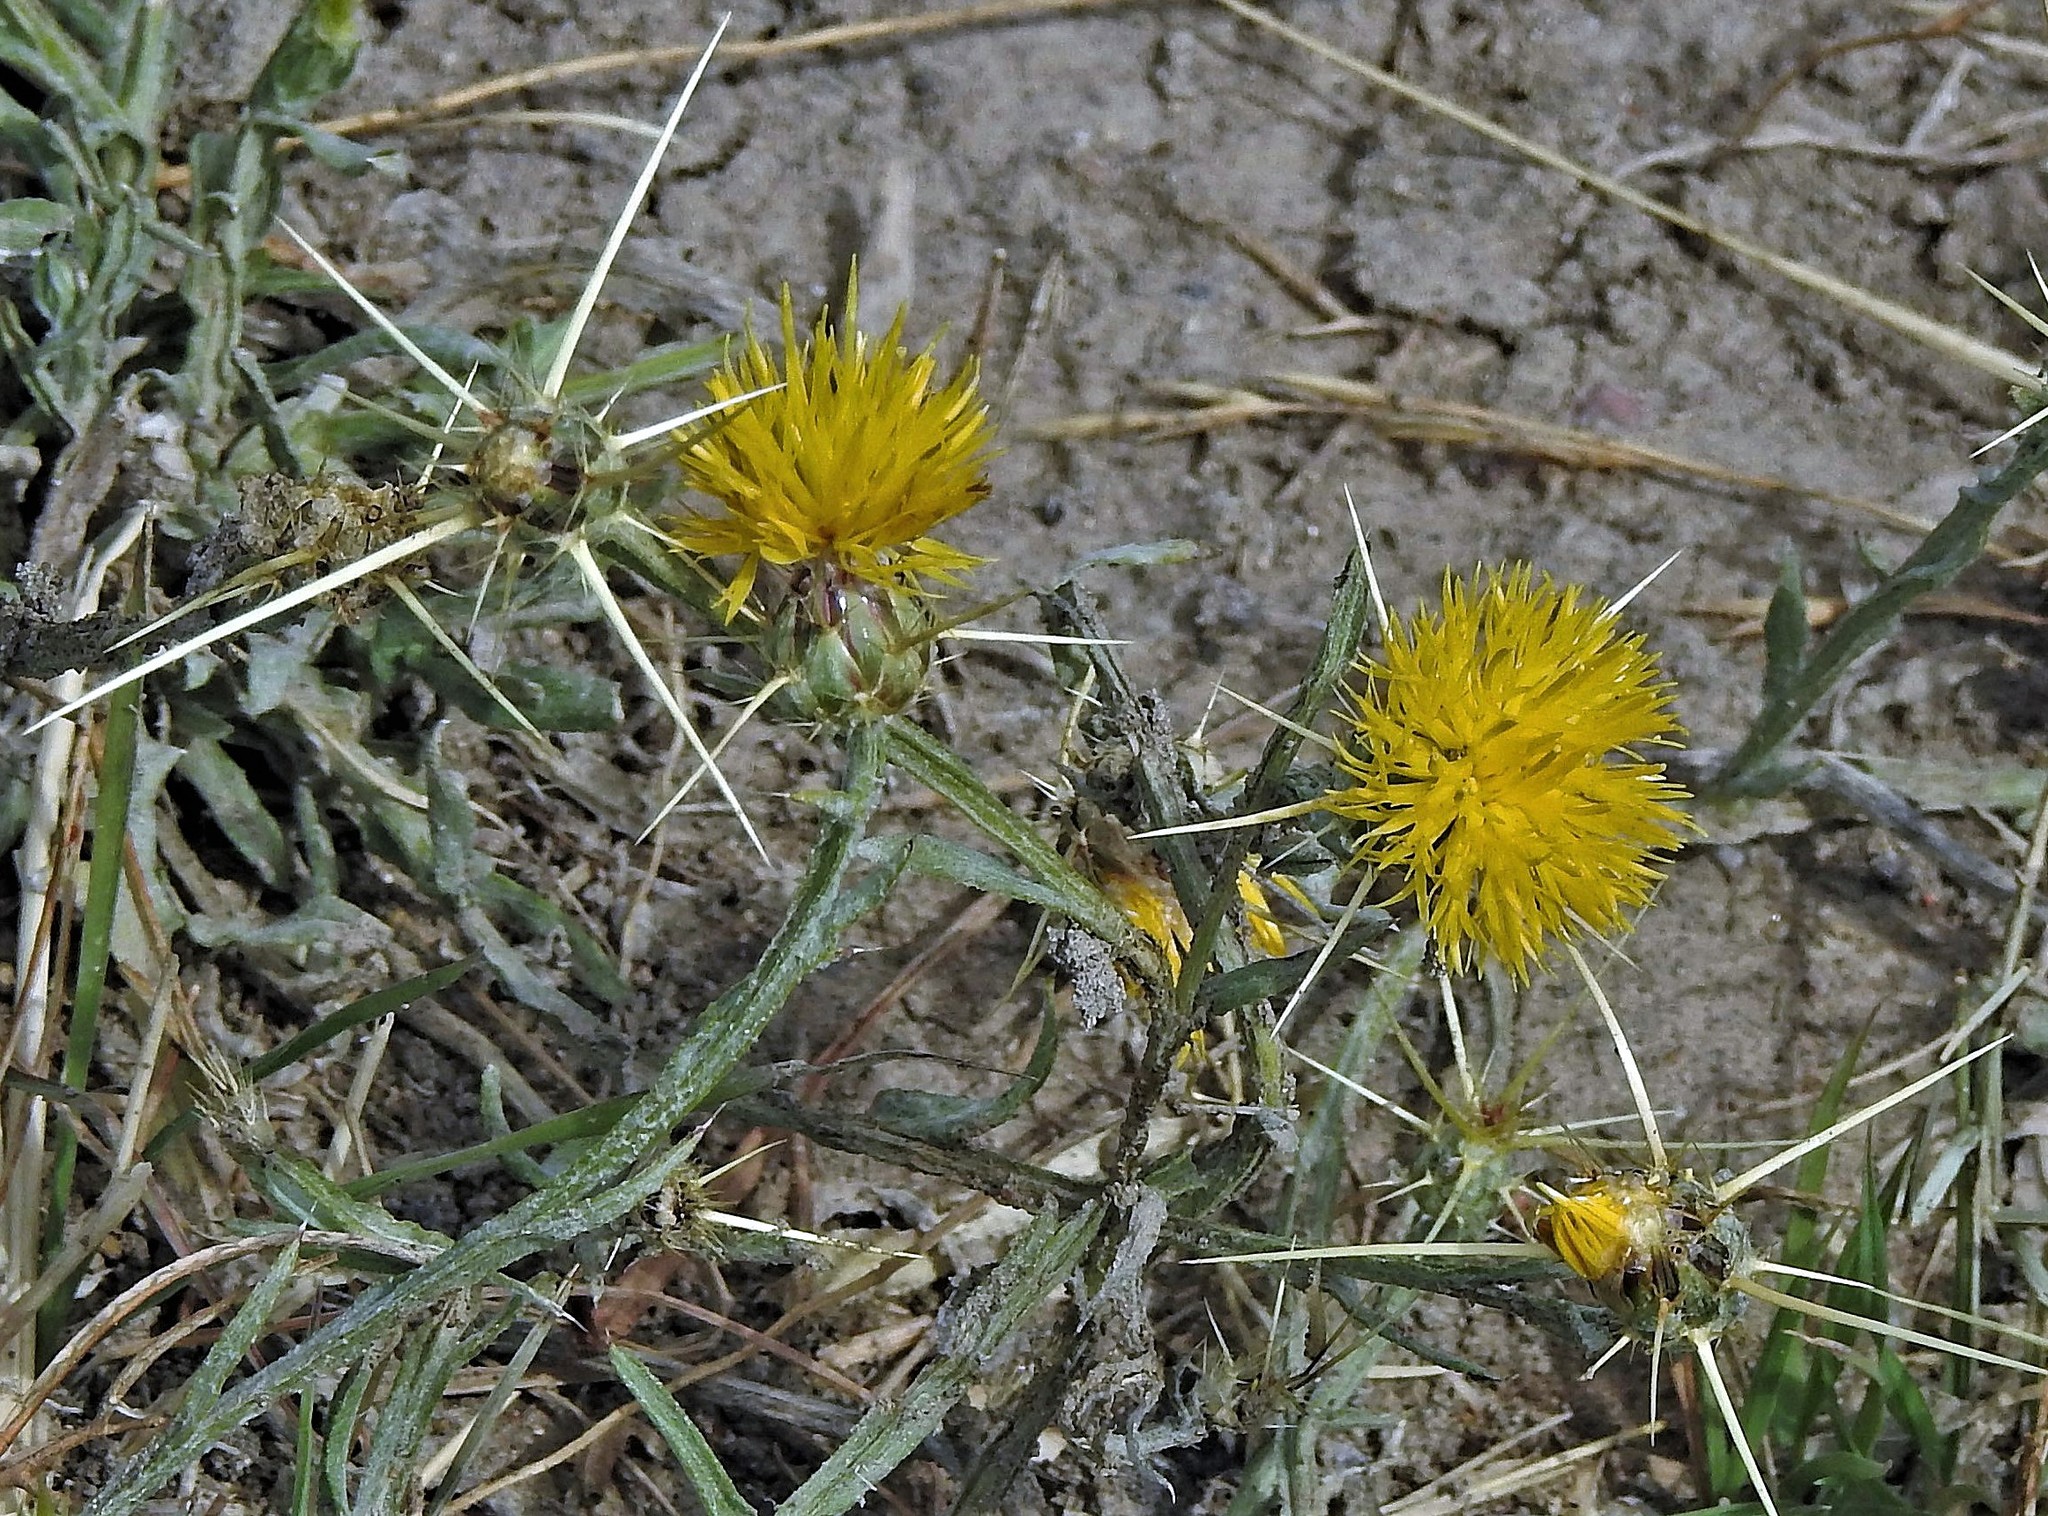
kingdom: Plantae
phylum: Tracheophyta
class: Magnoliopsida
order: Asterales
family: Asteraceae
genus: Centaurea
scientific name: Centaurea solstitialis
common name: Yellow star-thistle
